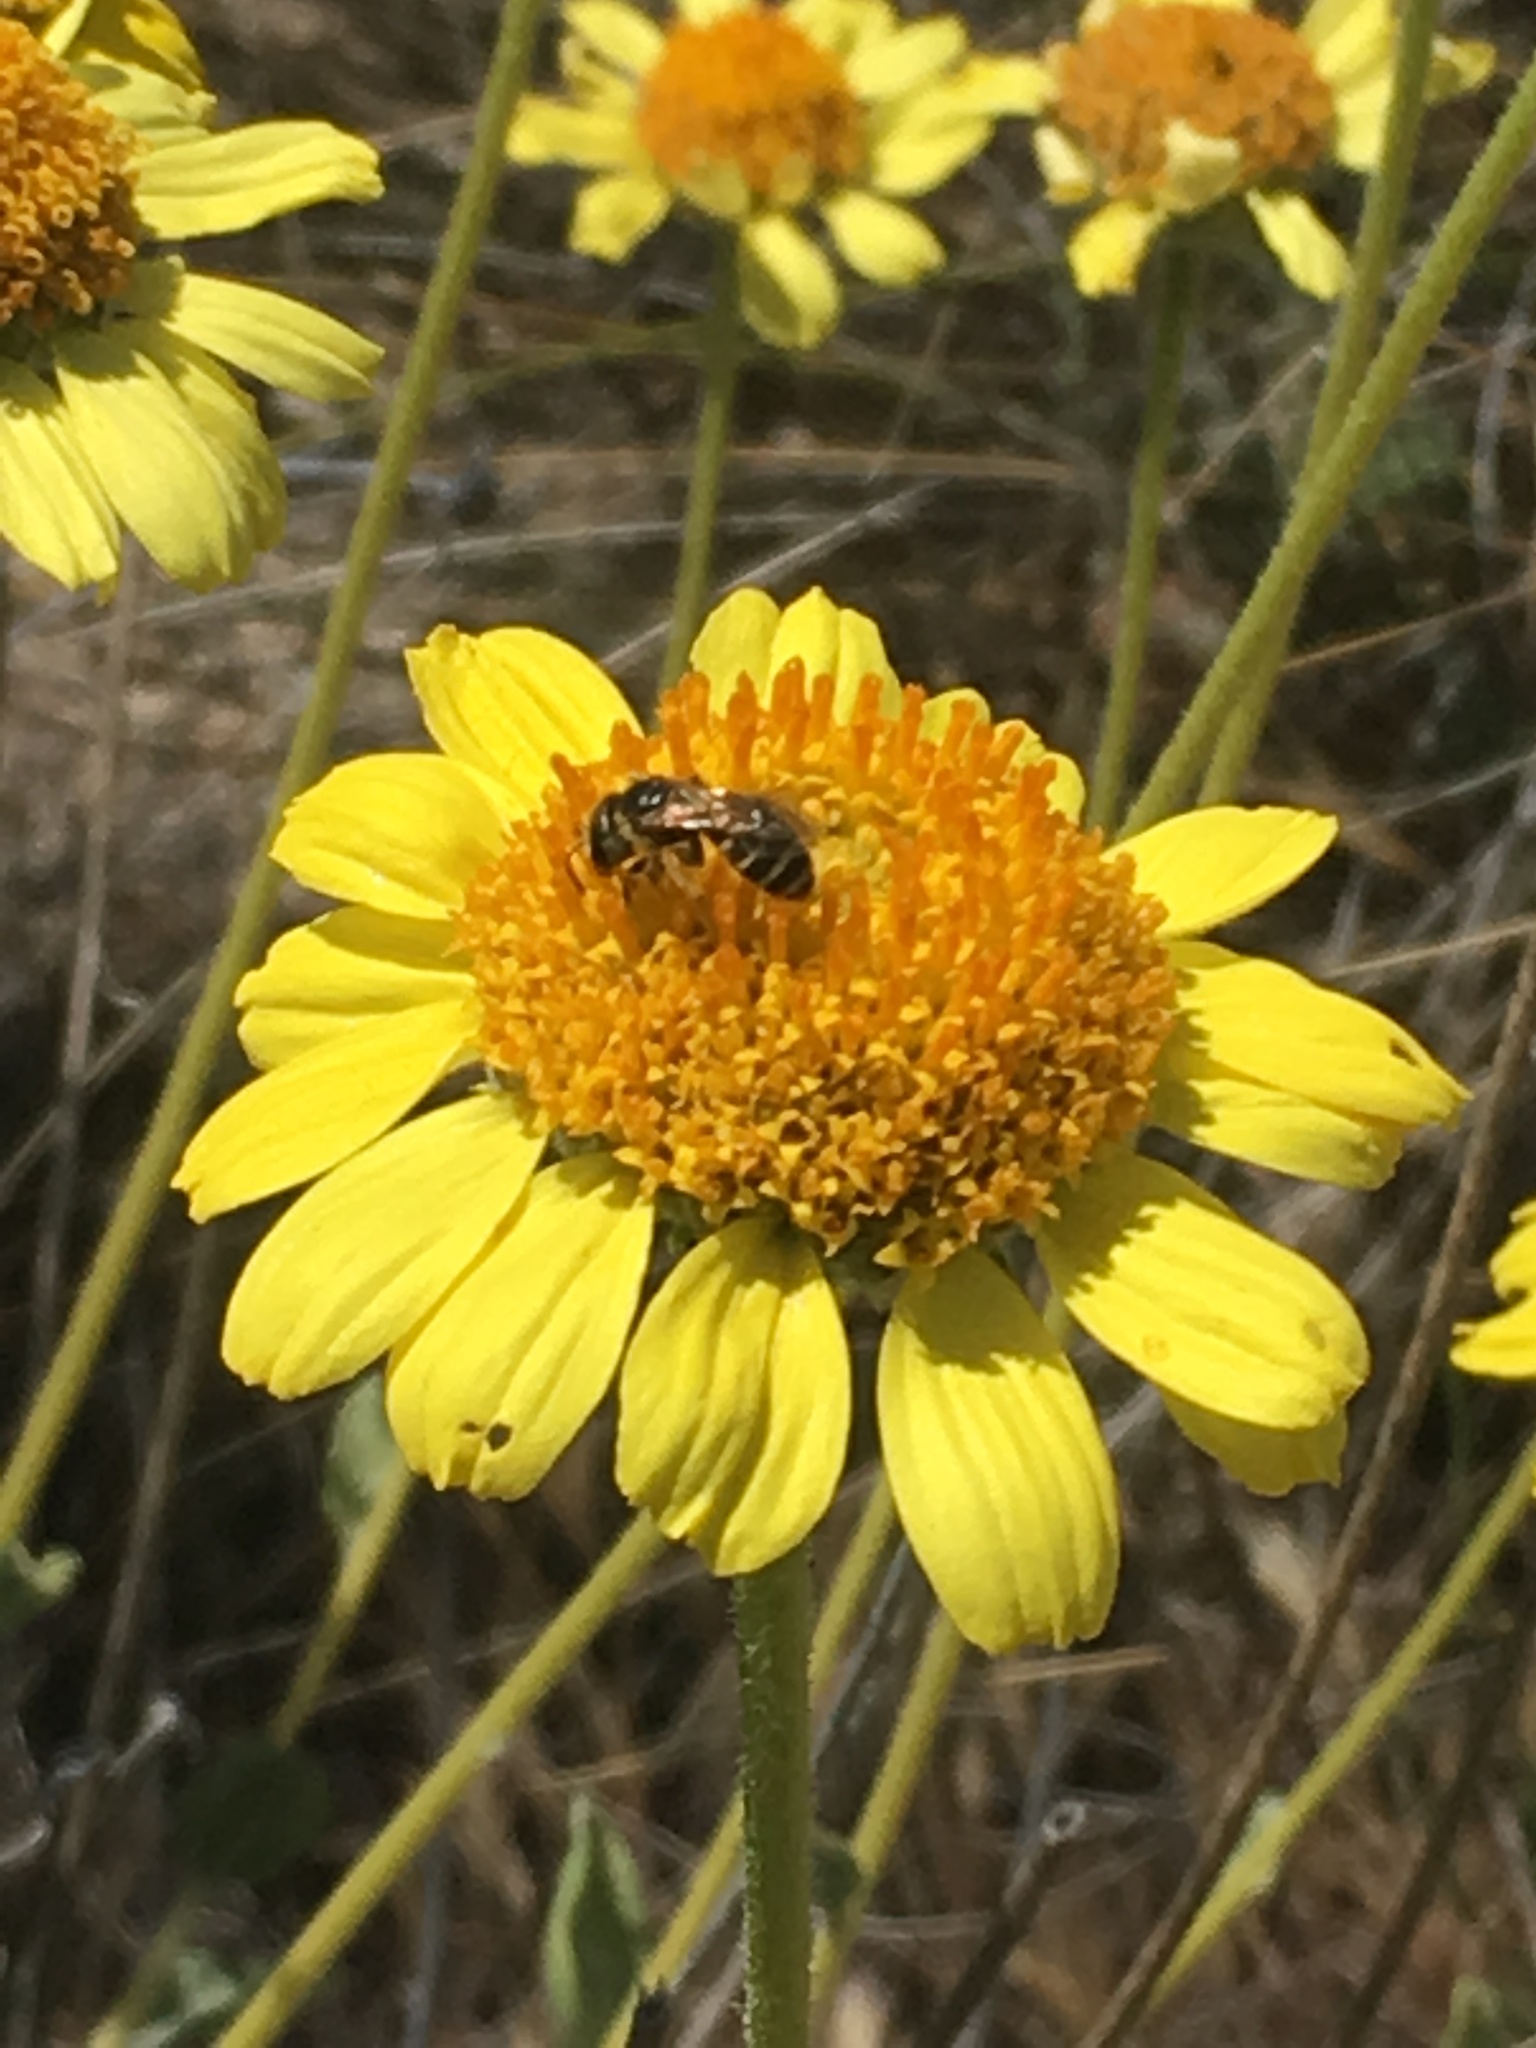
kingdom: Animalia
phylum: Arthropoda
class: Insecta
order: Hymenoptera
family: Halictidae
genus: Halictus
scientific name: Halictus ligatus
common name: Ligated furrow bee
